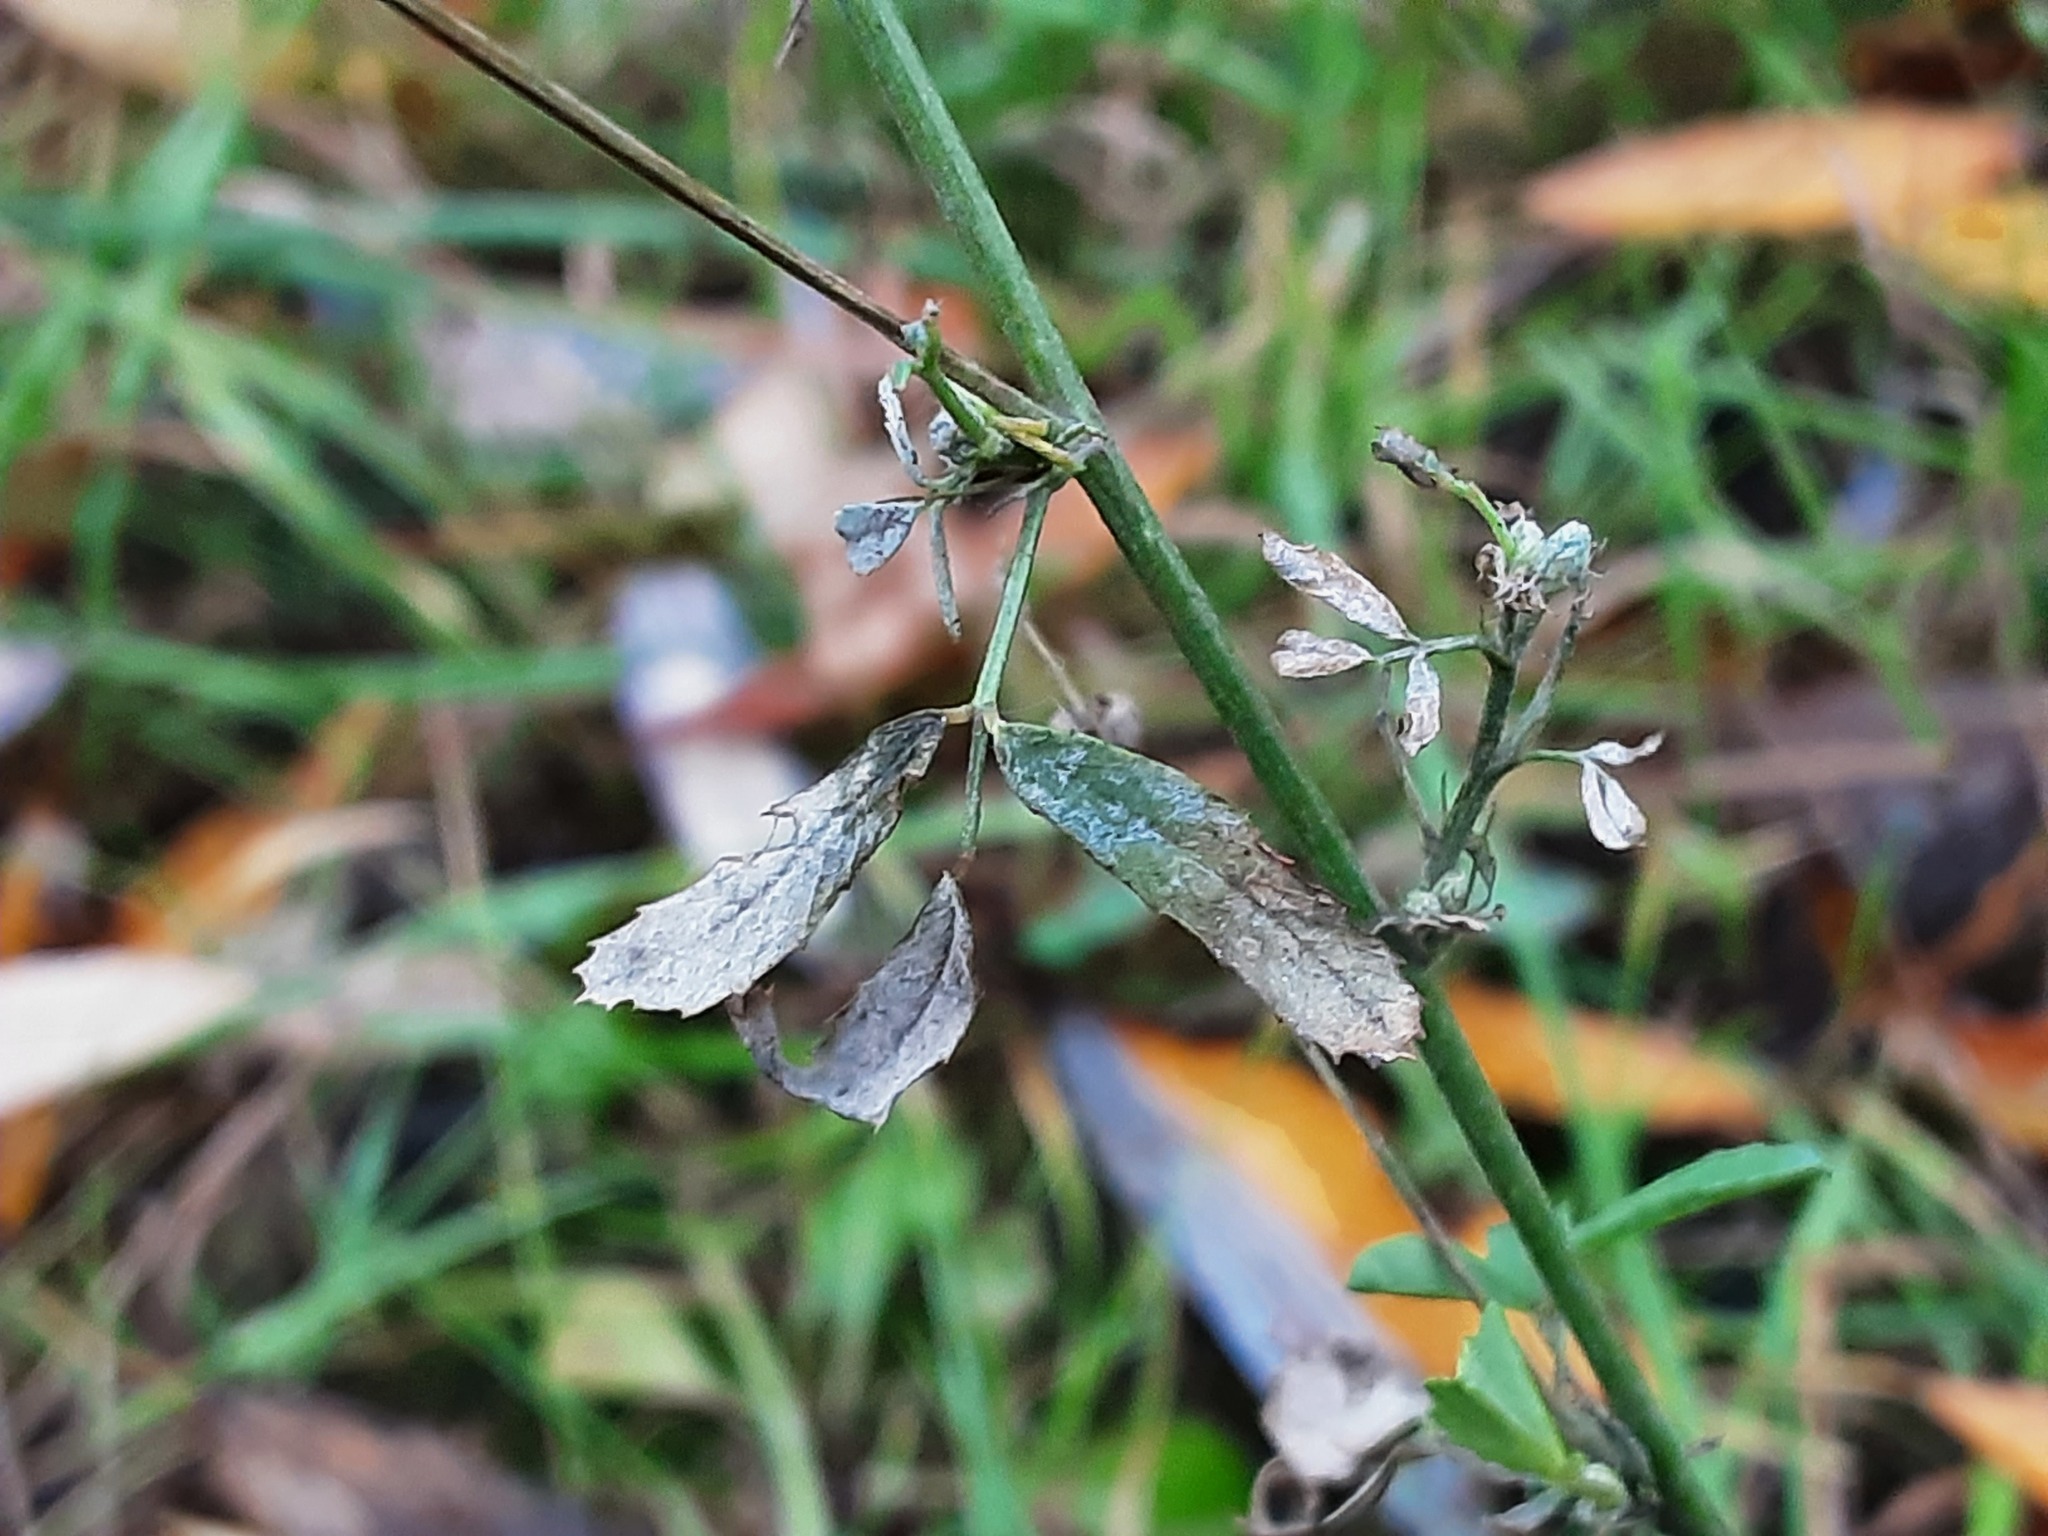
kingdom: Plantae
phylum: Tracheophyta
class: Magnoliopsida
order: Fabales
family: Fabaceae
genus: Melilotus
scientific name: Melilotus officinalis
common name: Sweetclover
